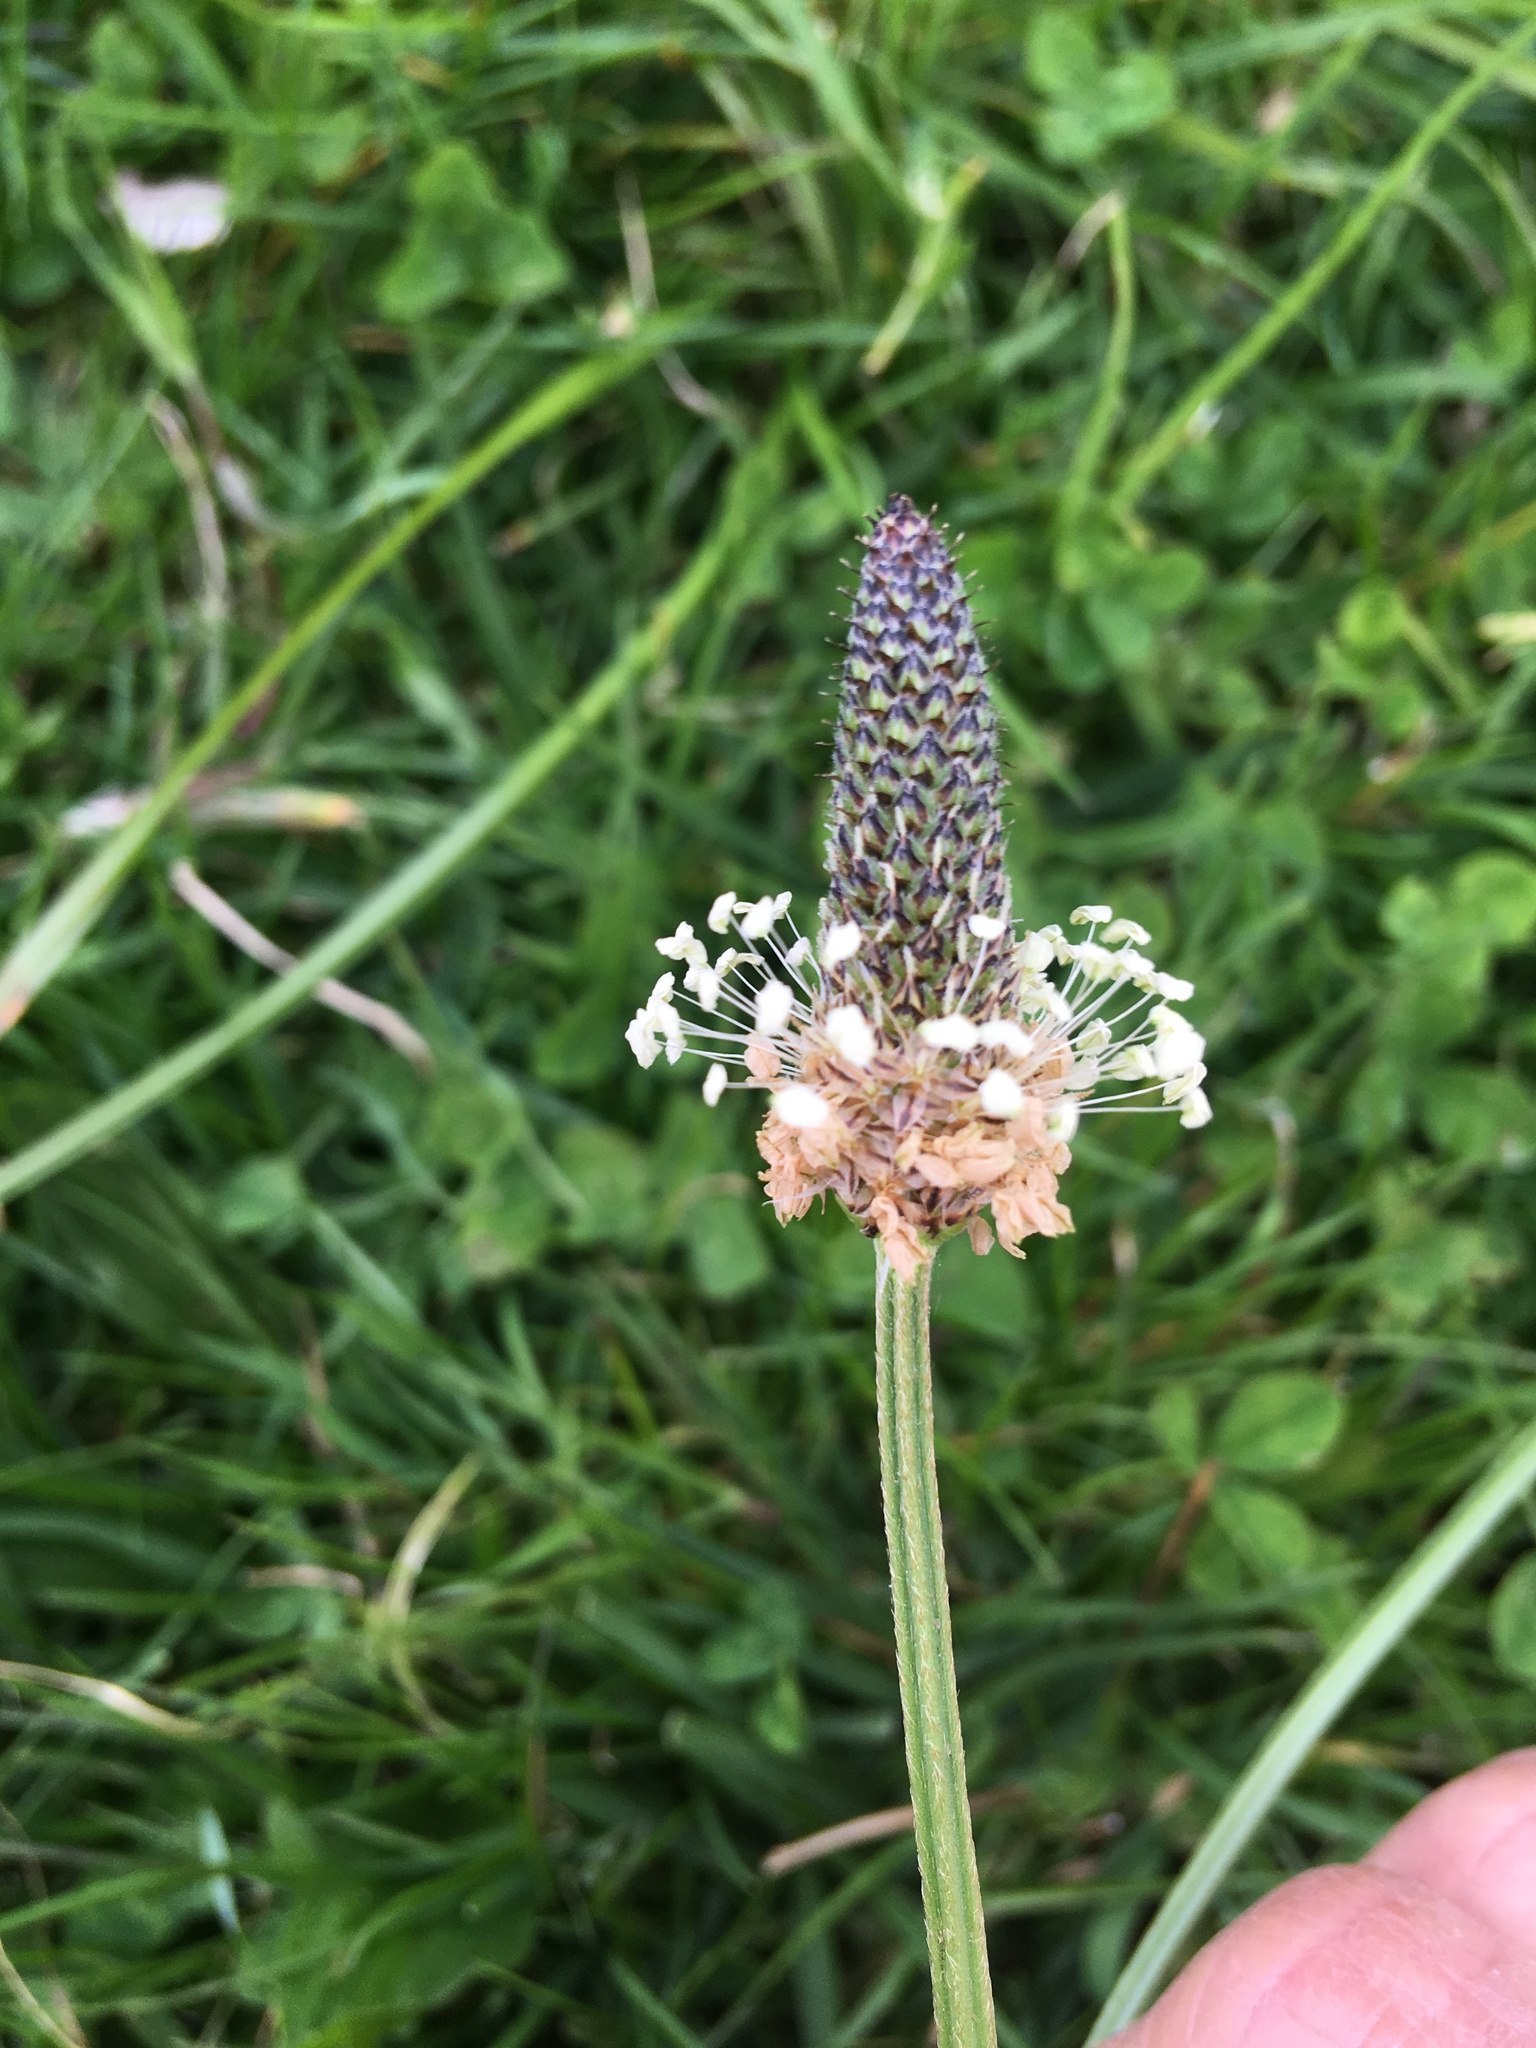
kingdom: Plantae
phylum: Tracheophyta
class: Magnoliopsida
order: Lamiales
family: Plantaginaceae
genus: Plantago
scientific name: Plantago lanceolata
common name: Ribwort plantain
